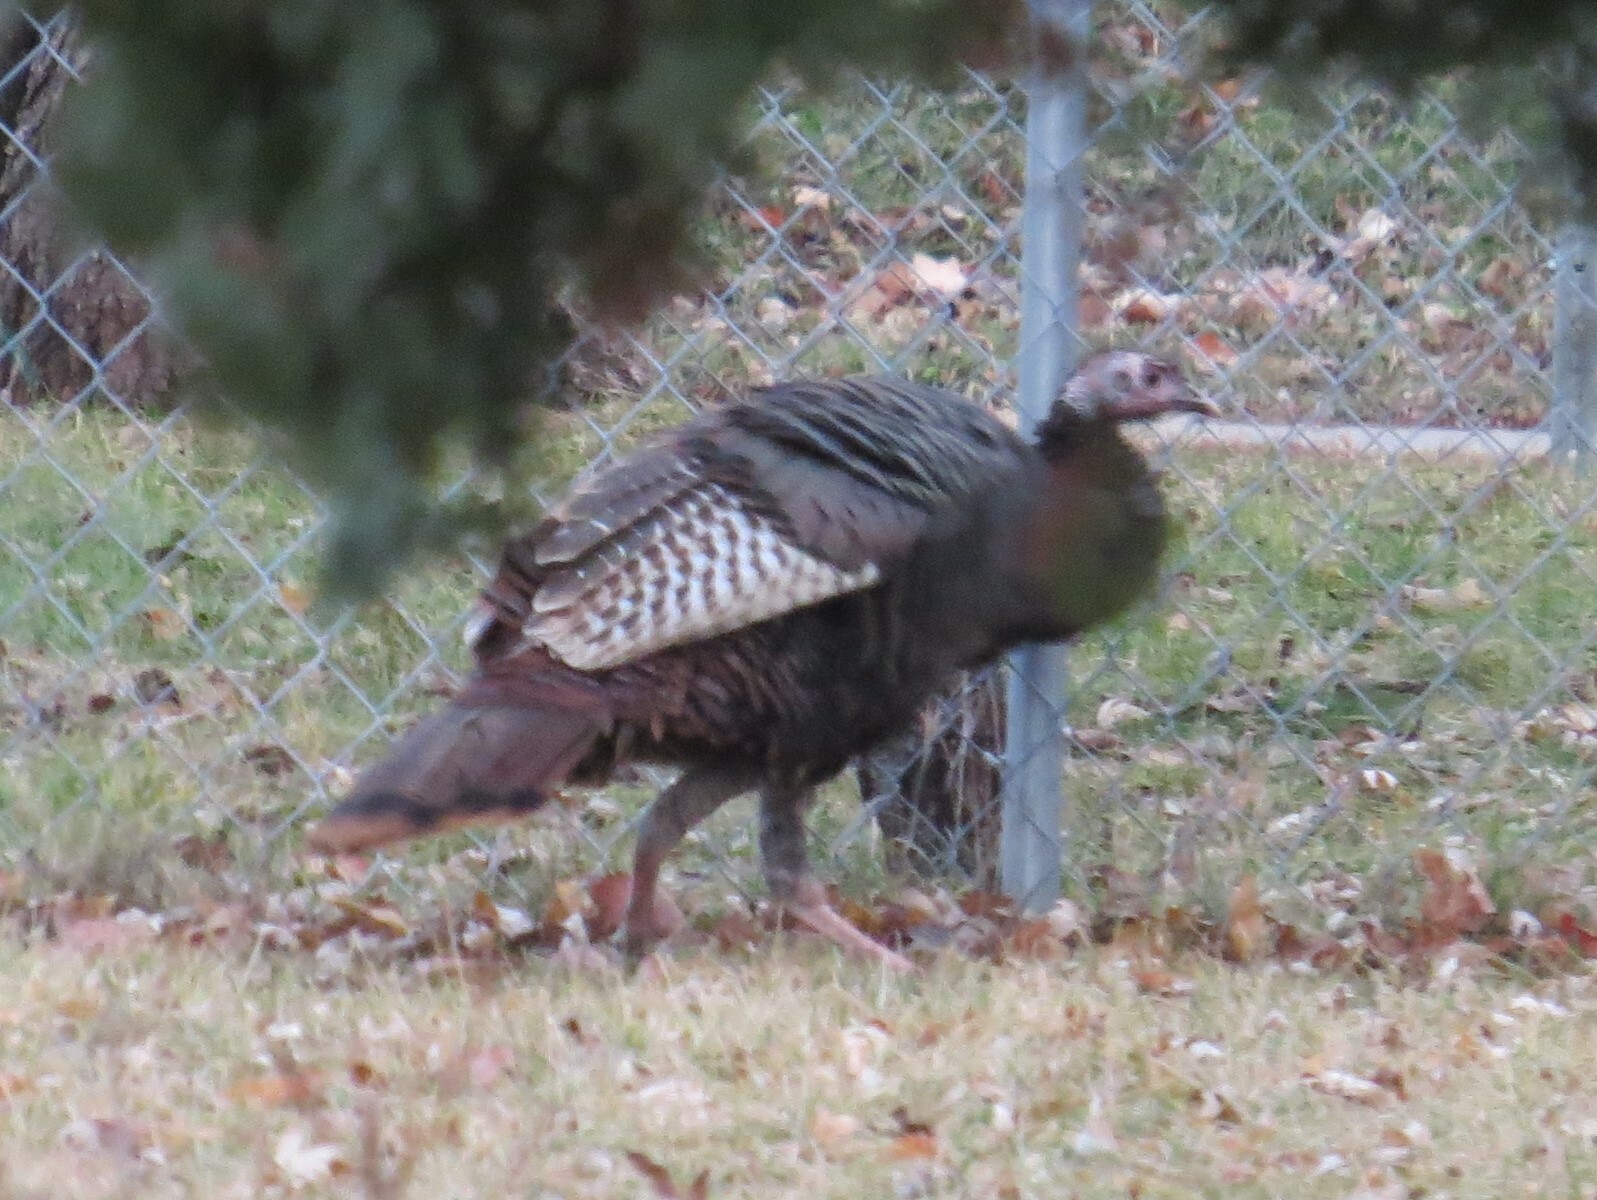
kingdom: Animalia
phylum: Chordata
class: Aves
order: Galliformes
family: Phasianidae
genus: Meleagris
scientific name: Meleagris gallopavo
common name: Wild turkey
